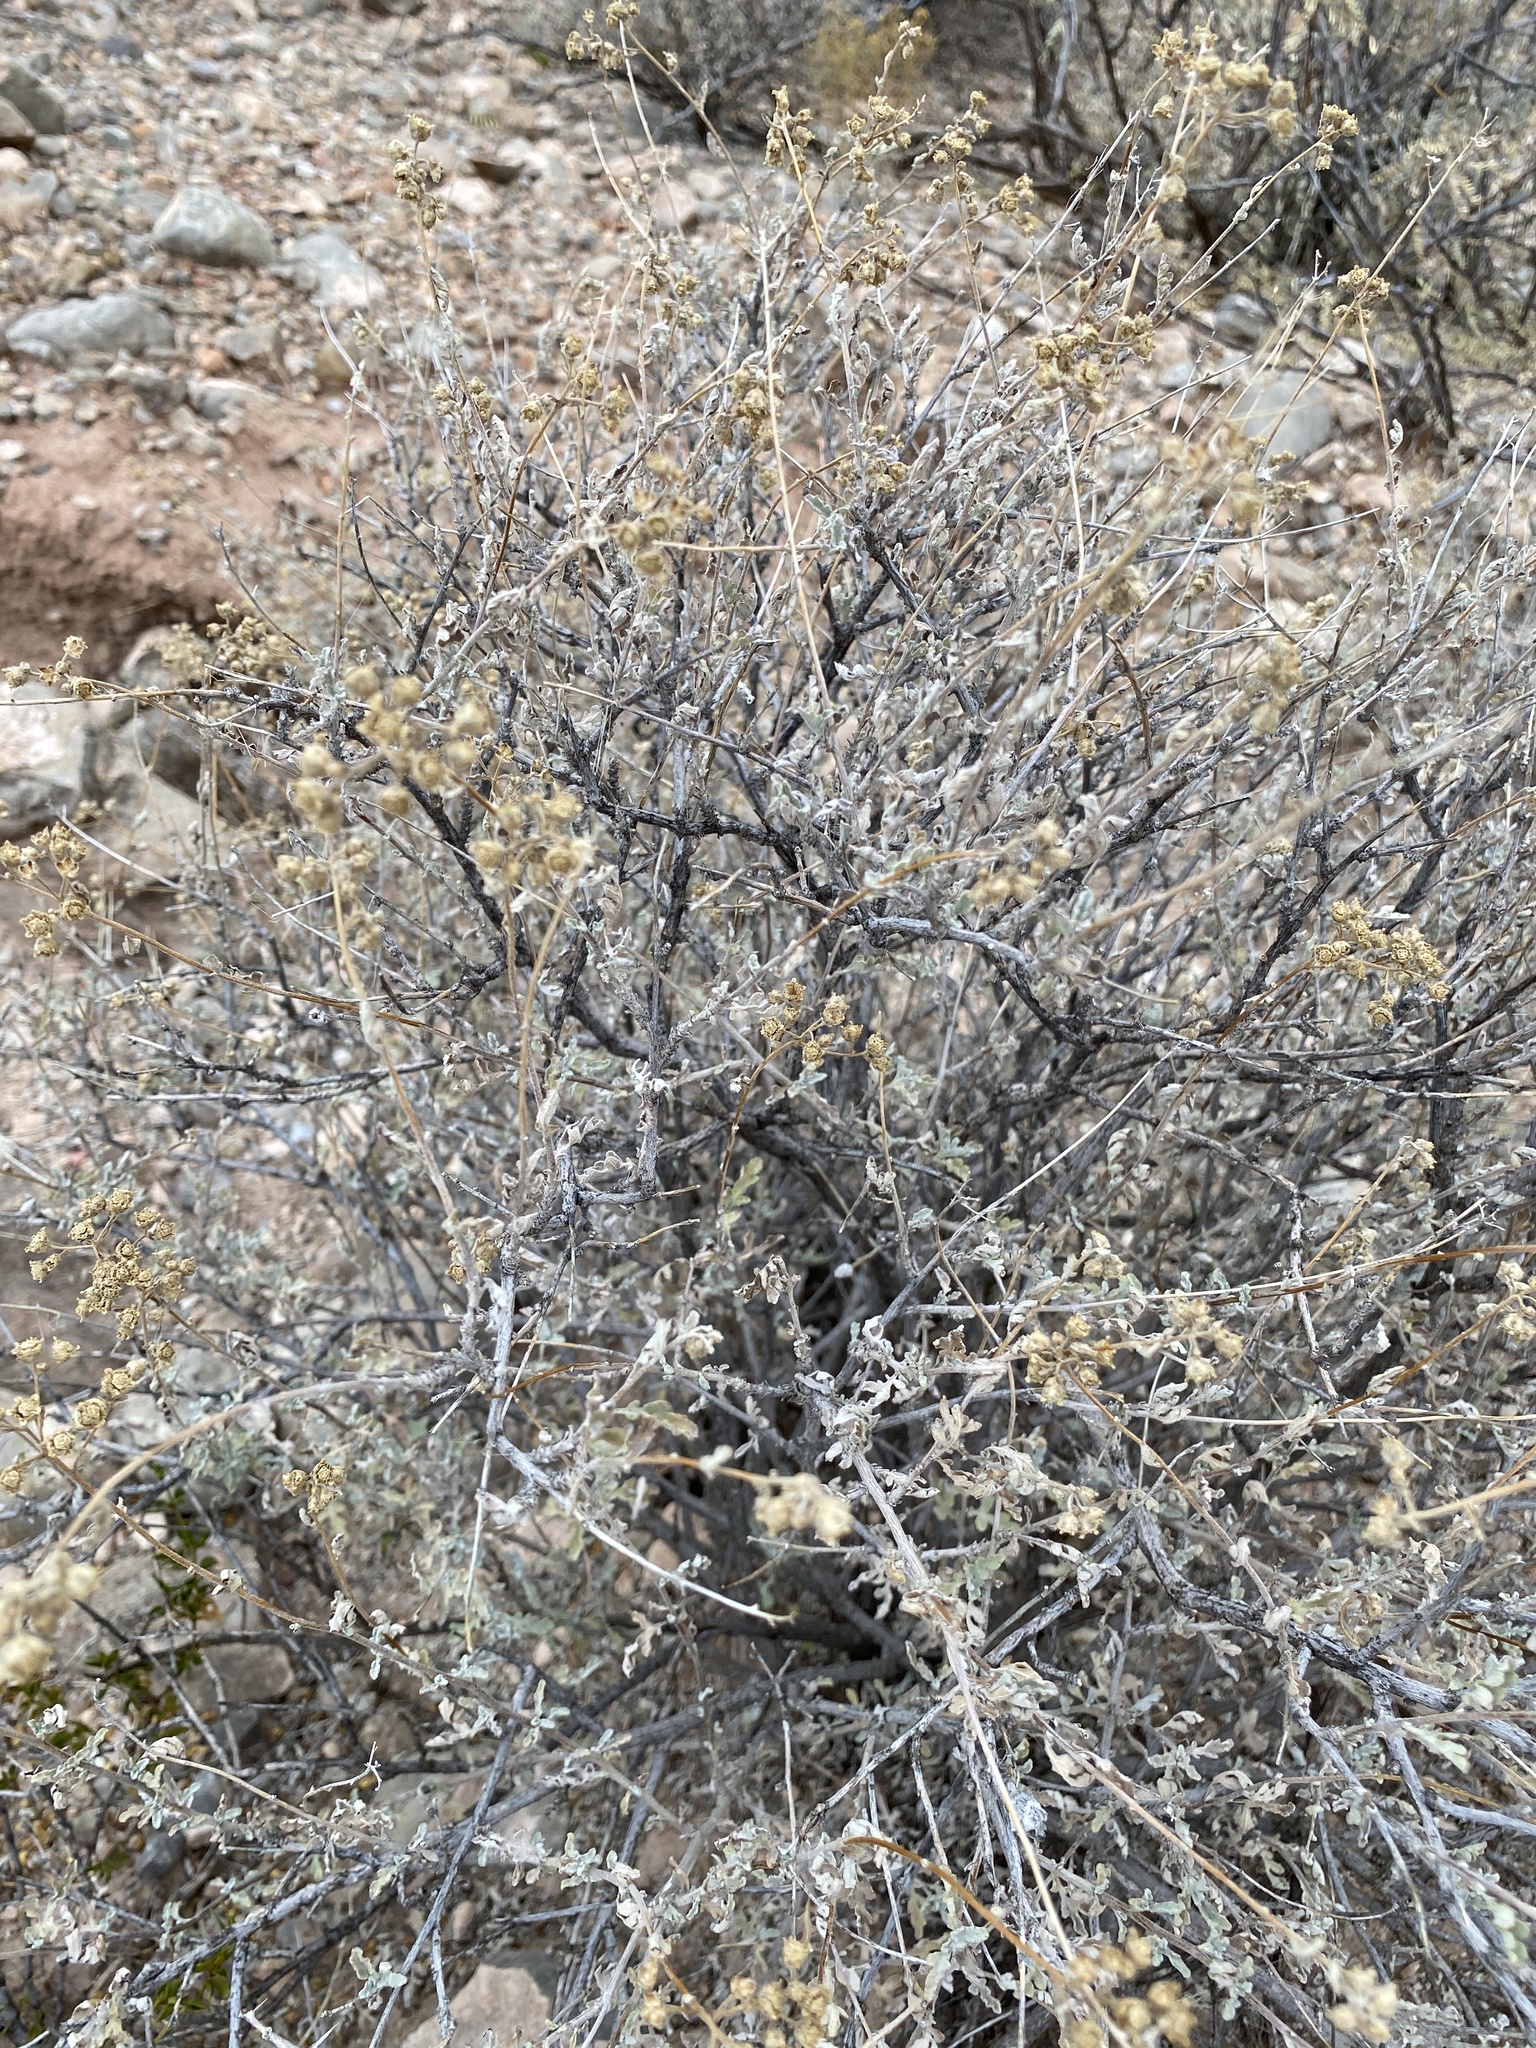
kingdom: Plantae
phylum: Tracheophyta
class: Magnoliopsida
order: Asterales
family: Asteraceae
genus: Parthenium
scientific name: Parthenium incanum
